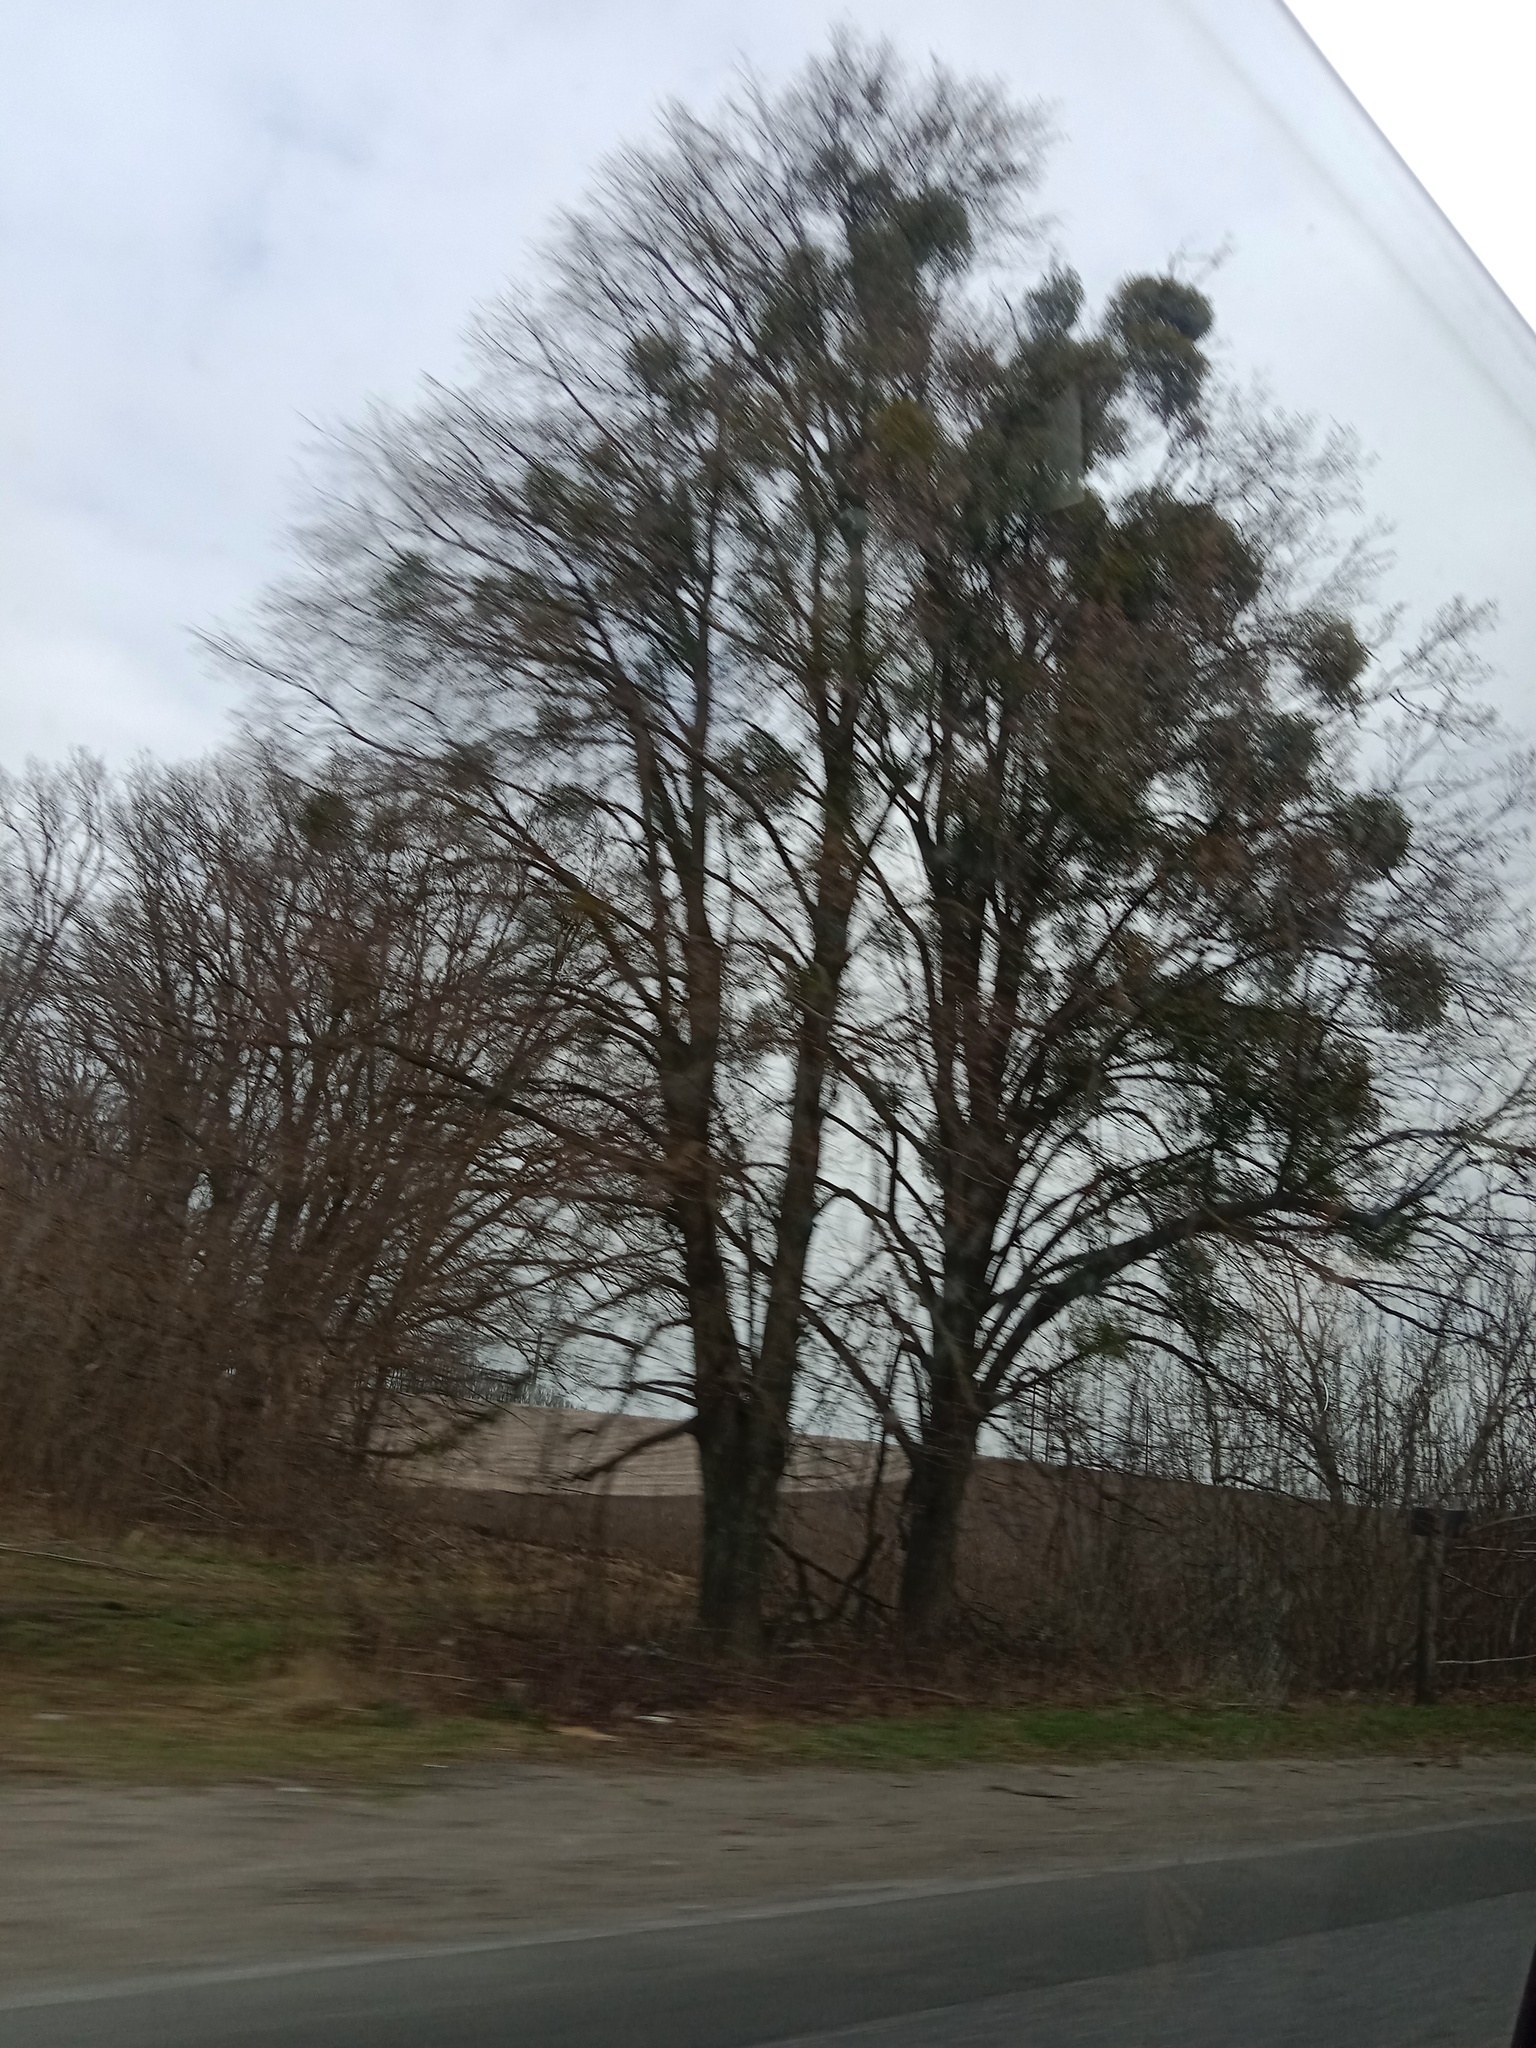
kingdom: Plantae
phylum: Tracheophyta
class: Magnoliopsida
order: Santalales
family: Viscaceae
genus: Viscum
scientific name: Viscum album
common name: Mistletoe
